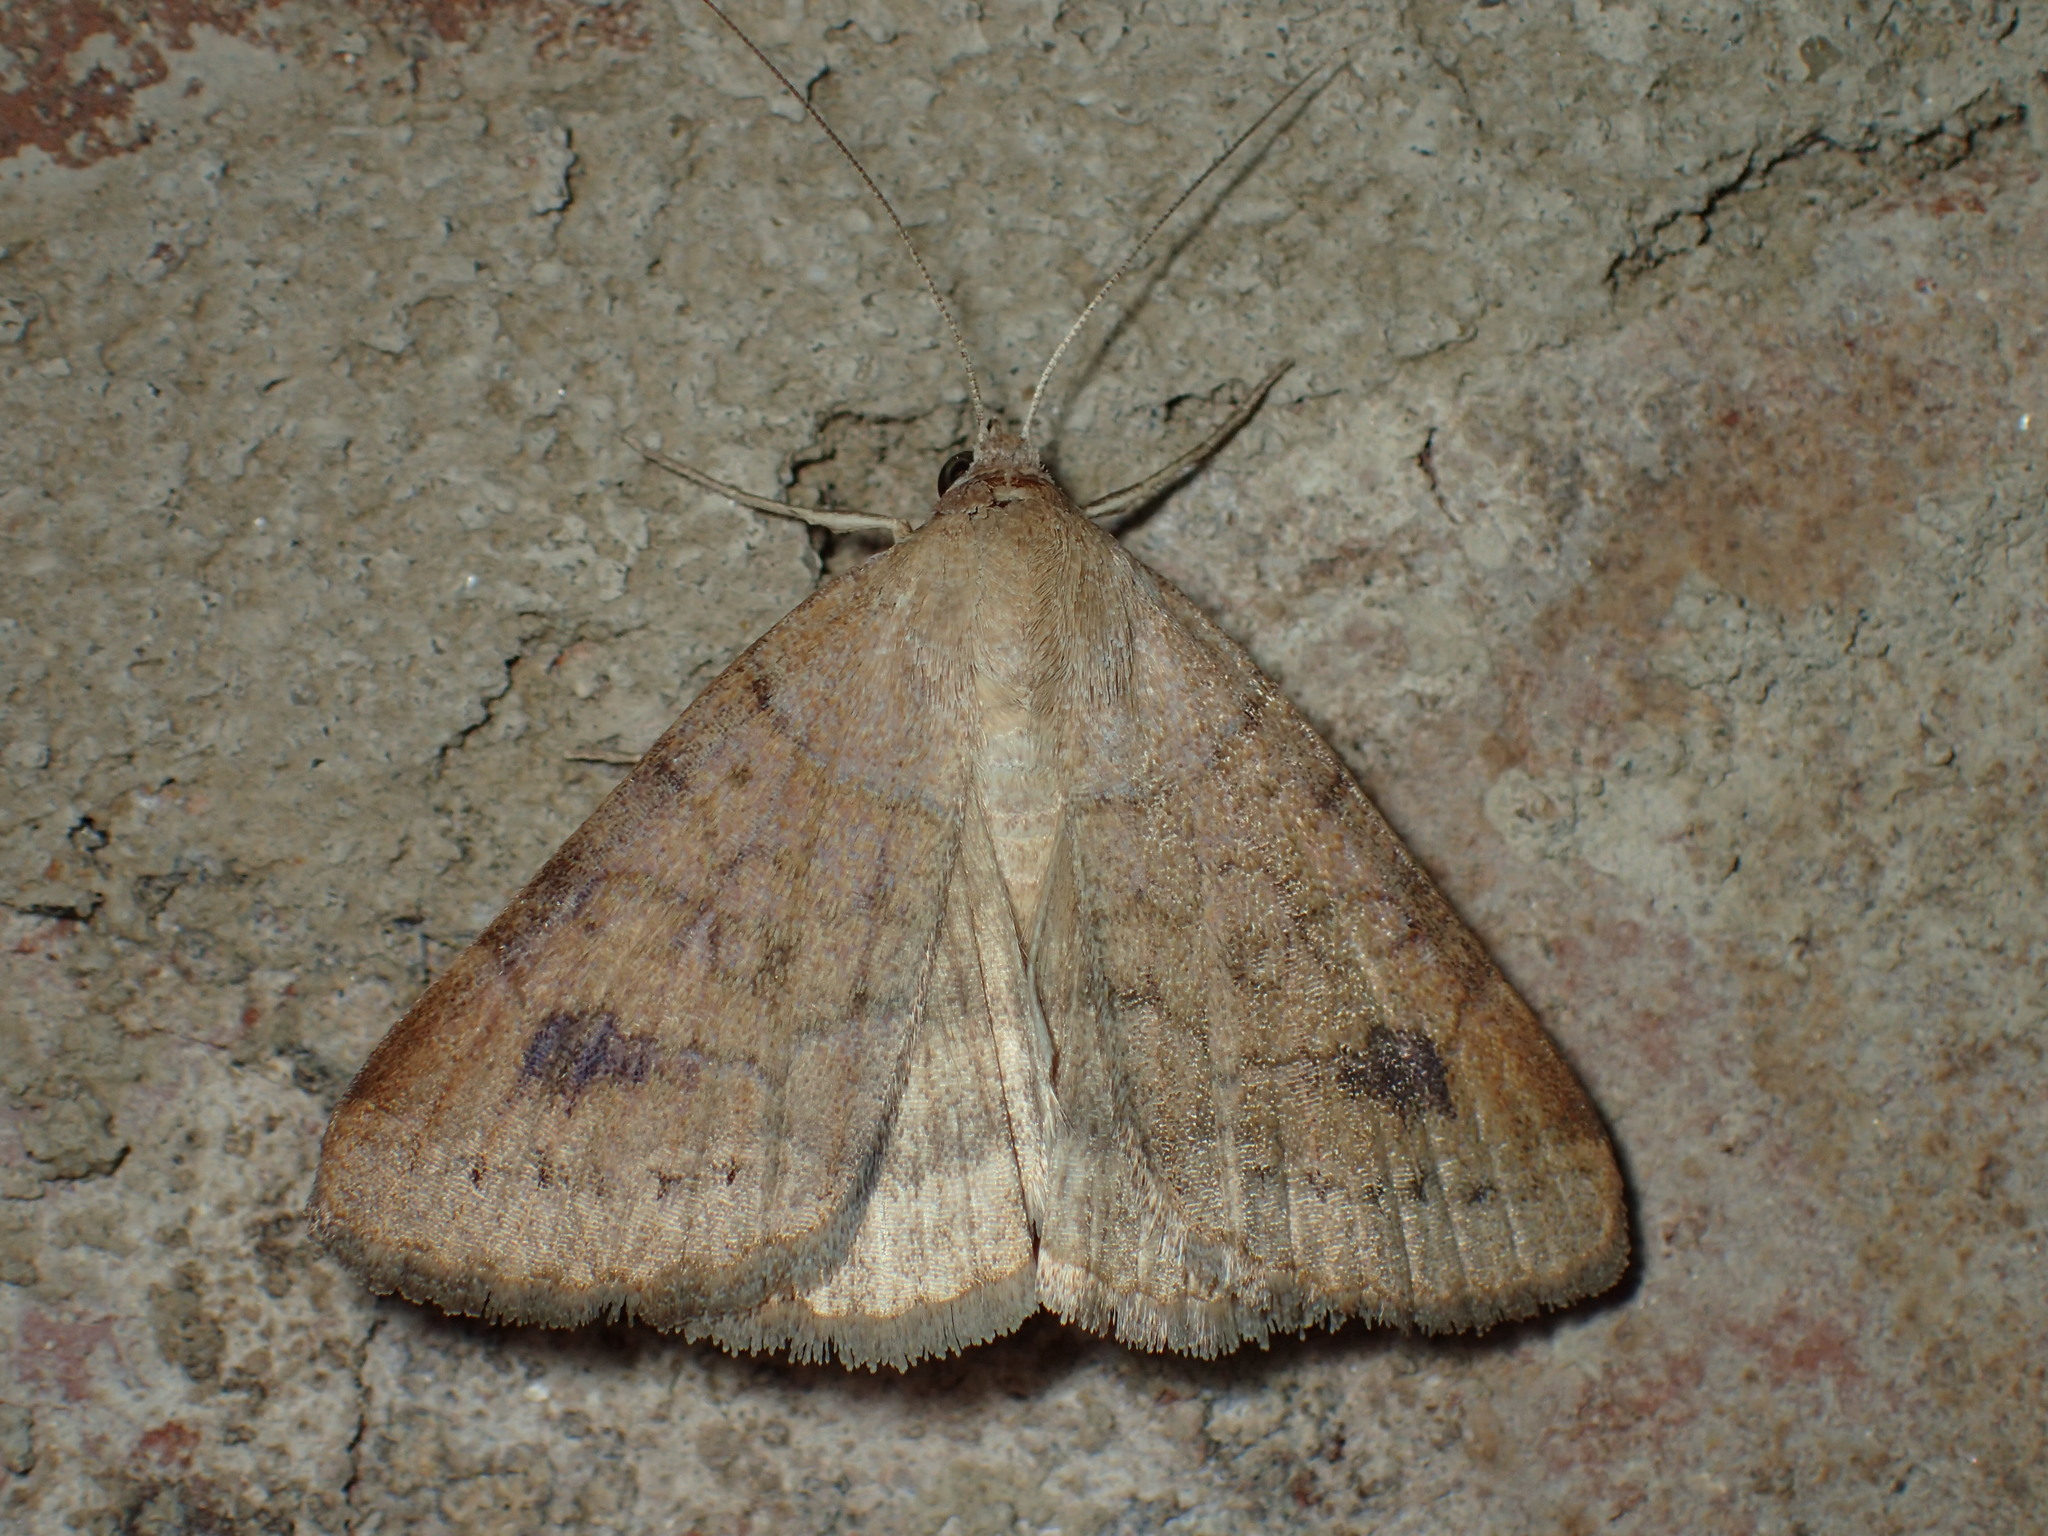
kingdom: Animalia
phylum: Arthropoda
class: Insecta
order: Lepidoptera
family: Erebidae
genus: Caenurgia
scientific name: Caenurgia chloropha
